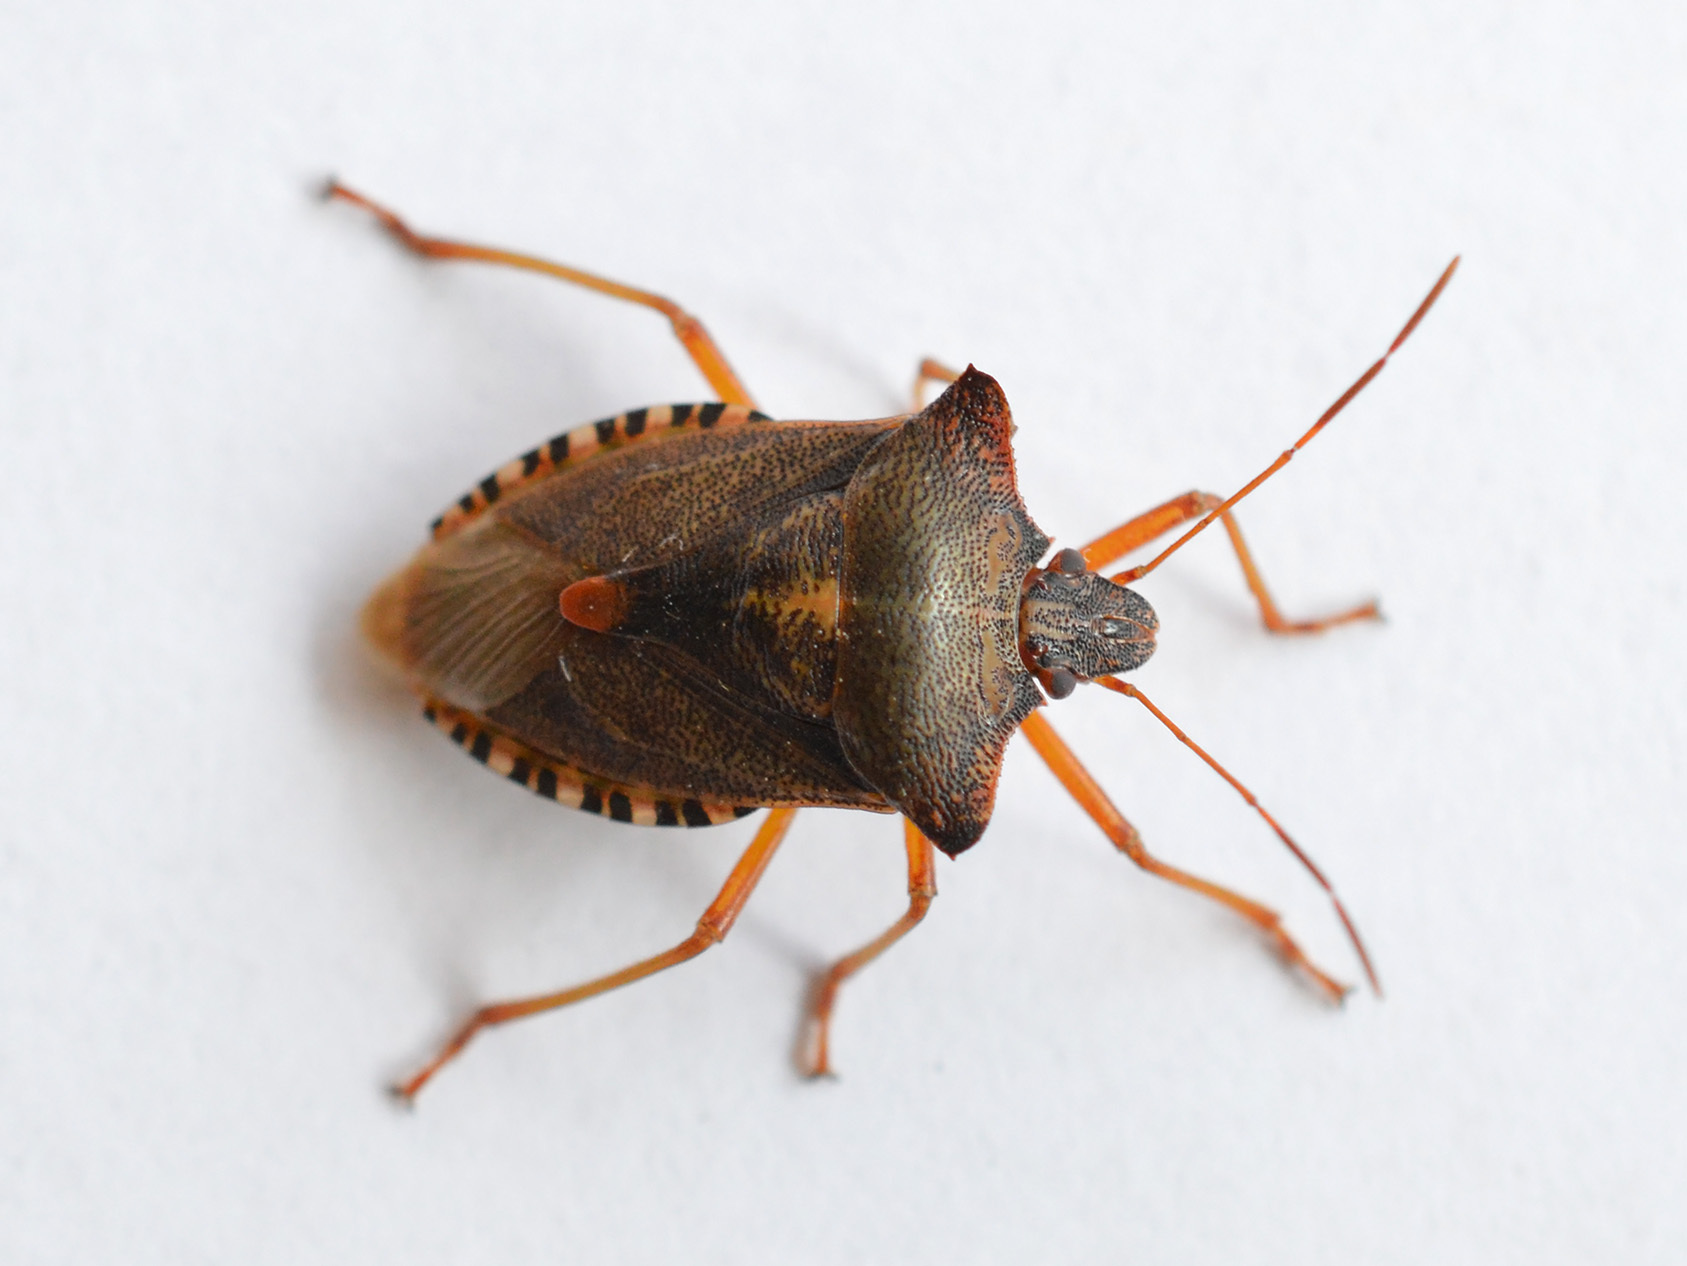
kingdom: Animalia
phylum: Arthropoda
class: Insecta
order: Hemiptera
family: Pentatomidae
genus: Pentatoma
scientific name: Pentatoma rufipes
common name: Forest bug
